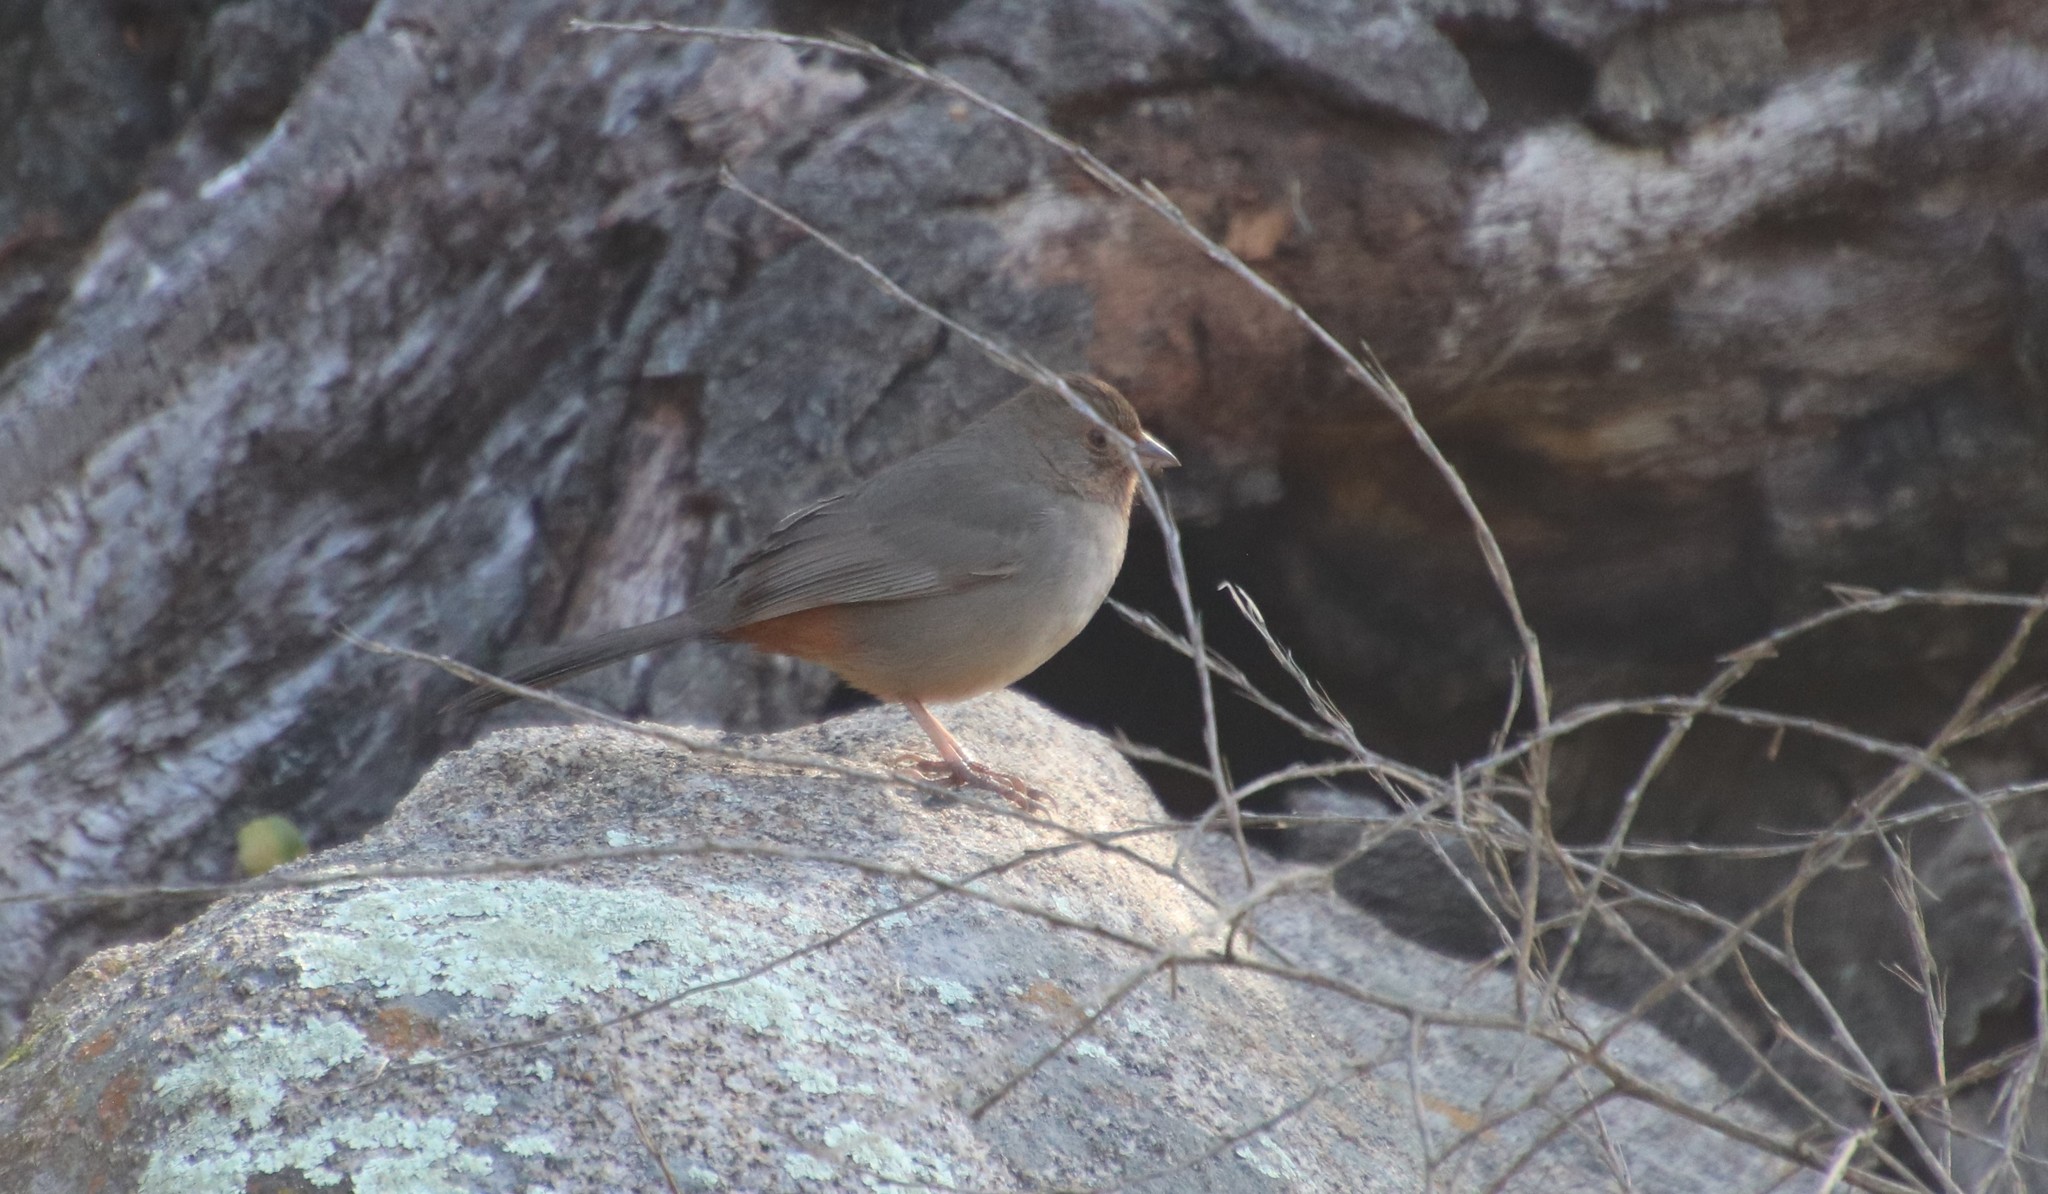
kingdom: Animalia
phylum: Chordata
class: Aves
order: Passeriformes
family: Passerellidae
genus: Melozone
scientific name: Melozone crissalis
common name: California towhee
